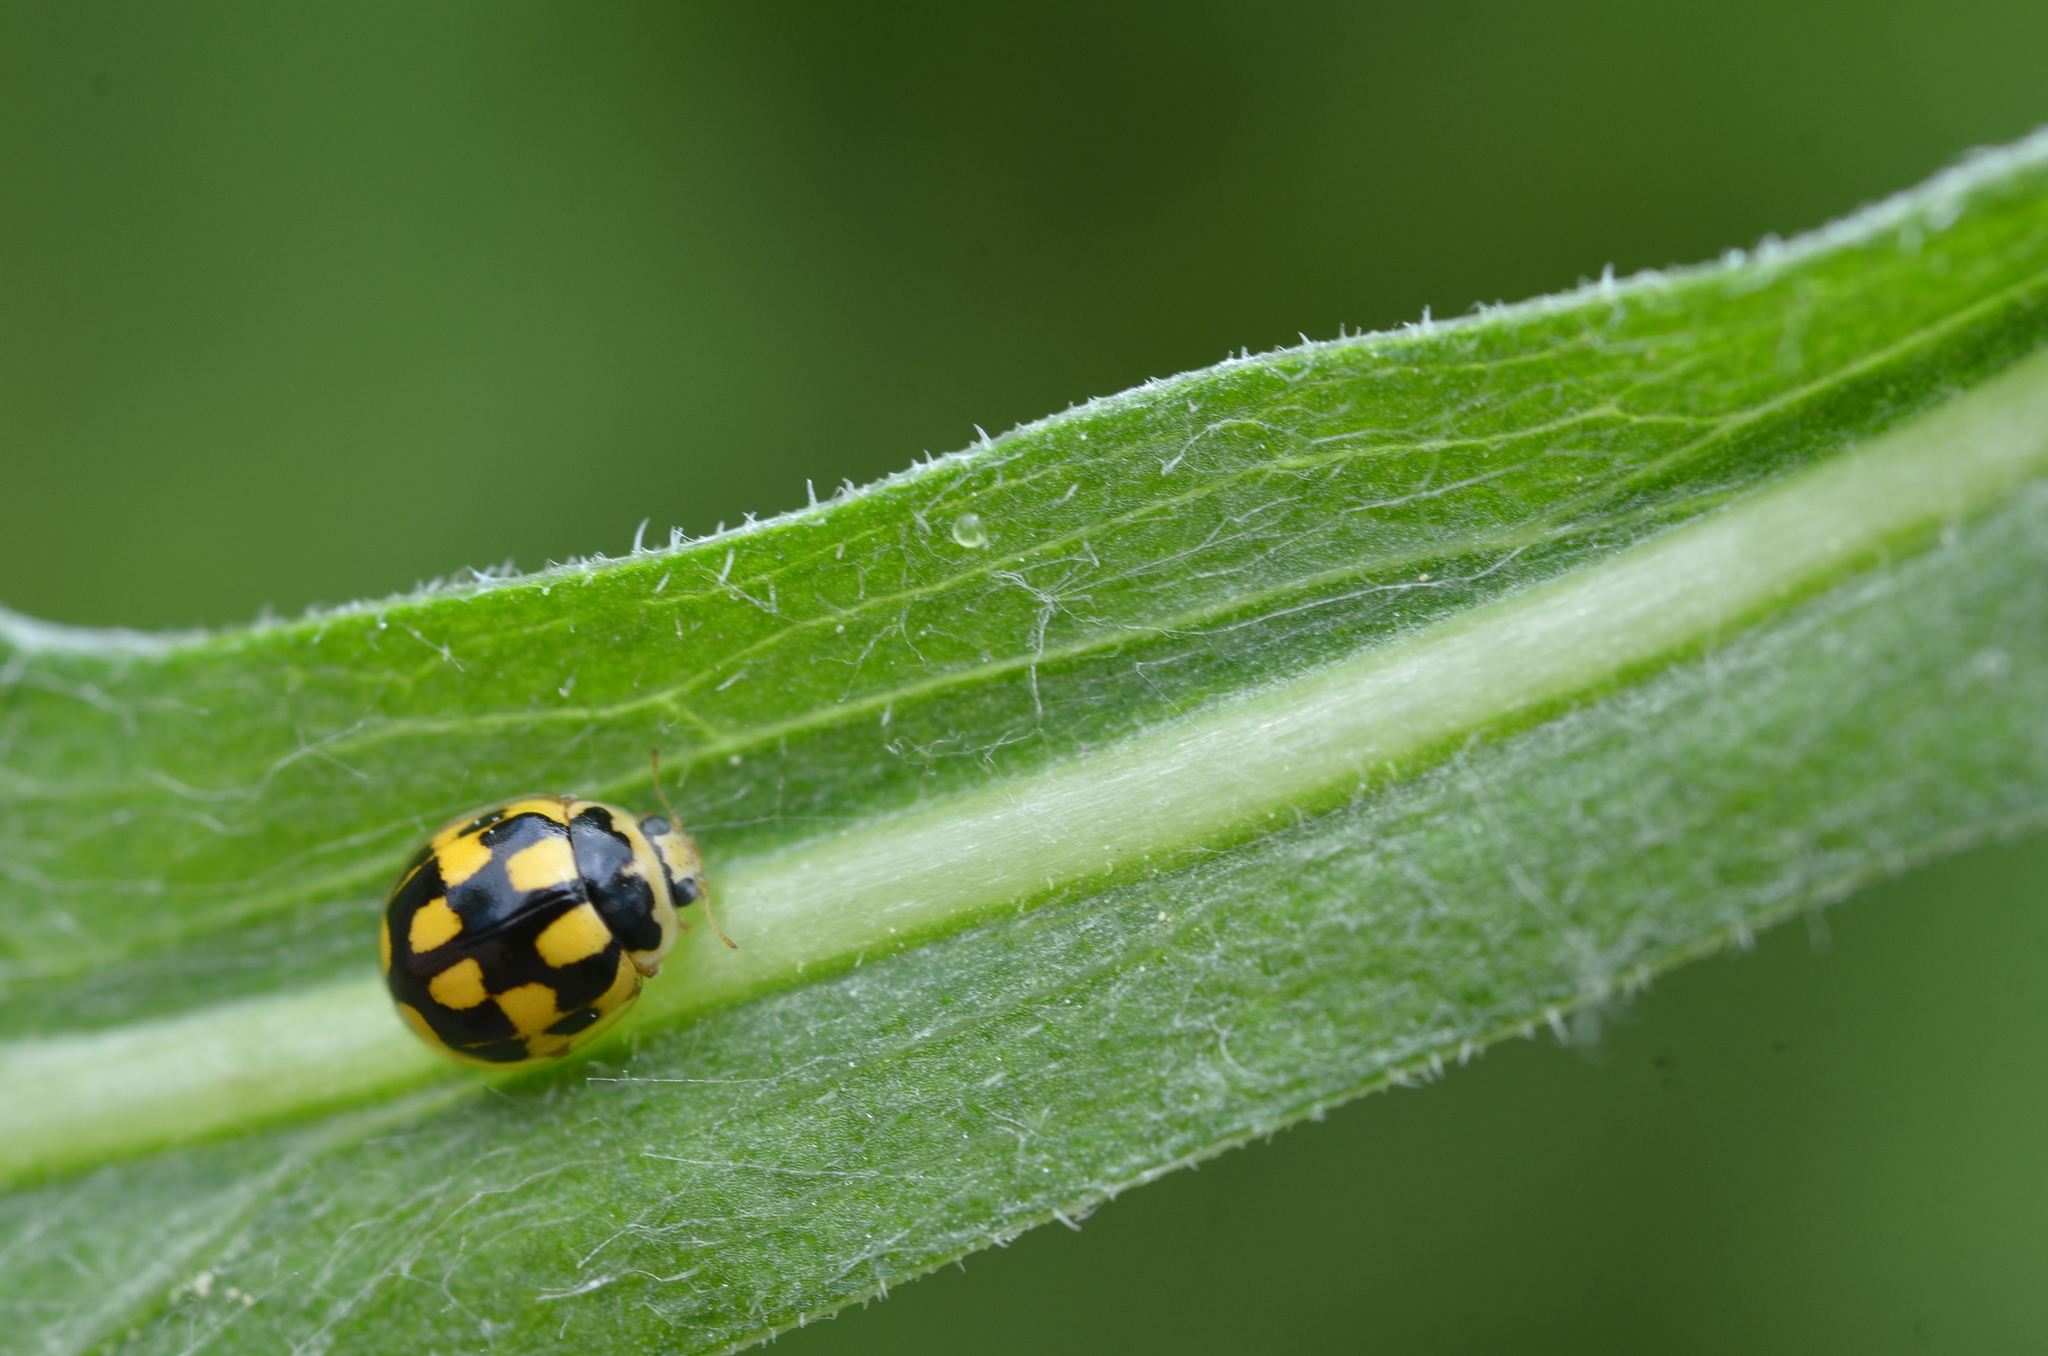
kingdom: Animalia
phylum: Arthropoda
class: Insecta
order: Coleoptera
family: Coccinellidae
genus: Propylaea
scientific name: Propylaea quatuordecimpunctata
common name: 14-spotted ladybird beetle
